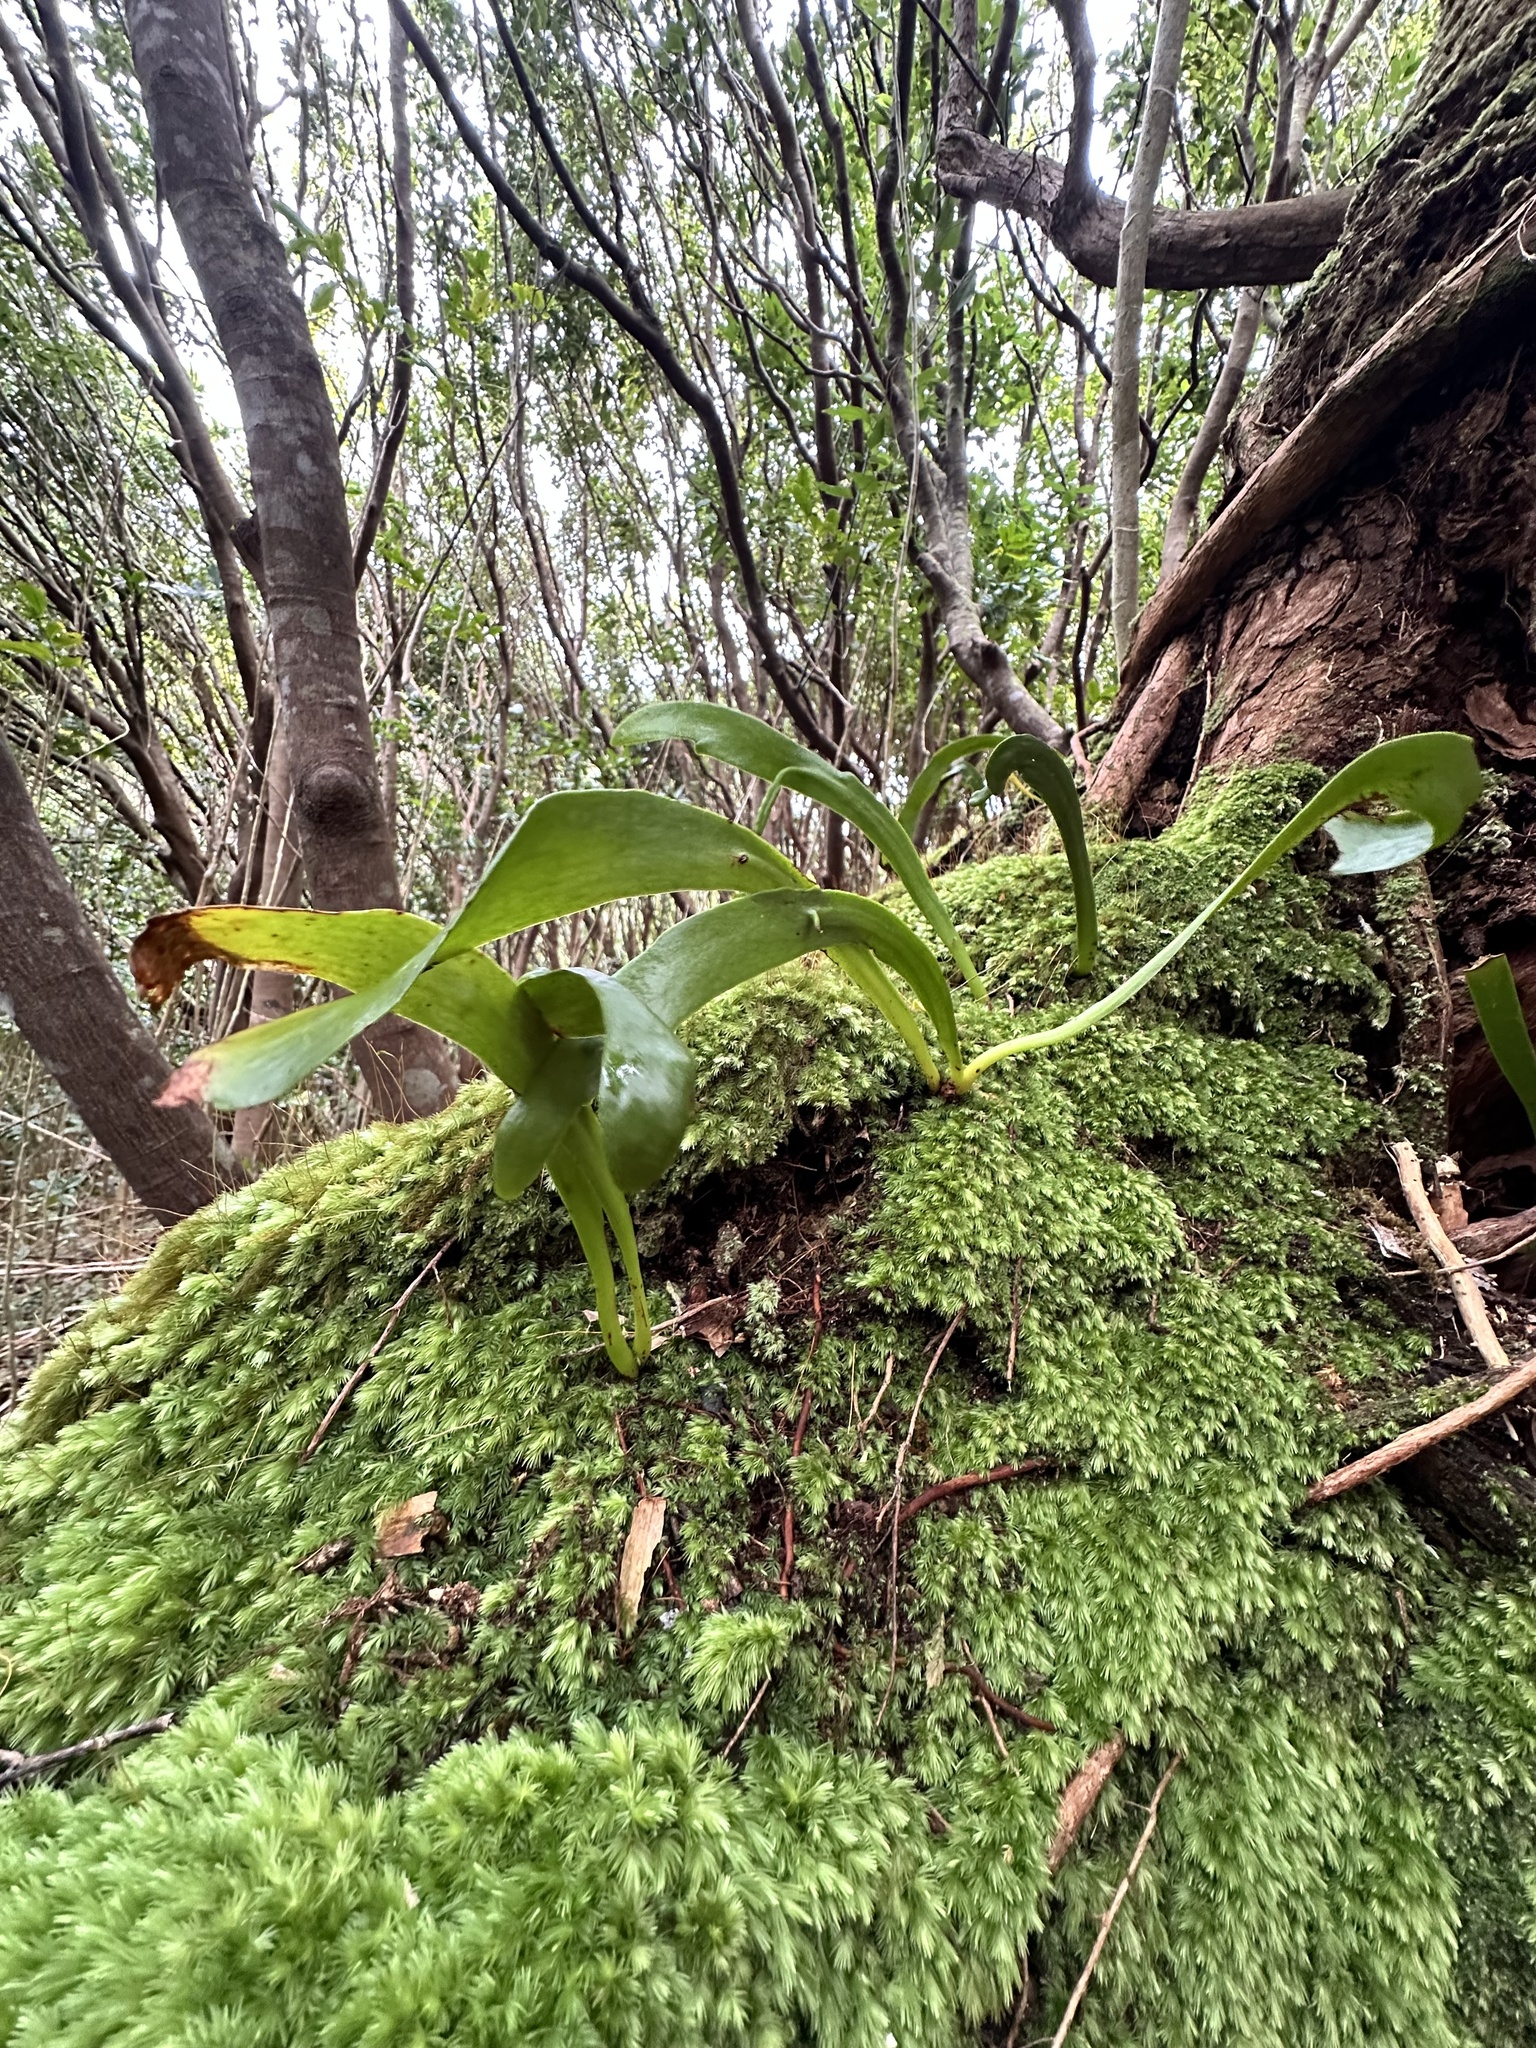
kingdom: Plantae
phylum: Tracheophyta
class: Polypodiopsida
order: Ophioglossales
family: Ophioglossaceae
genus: Ophioderma
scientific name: Ophioderma pendulum
